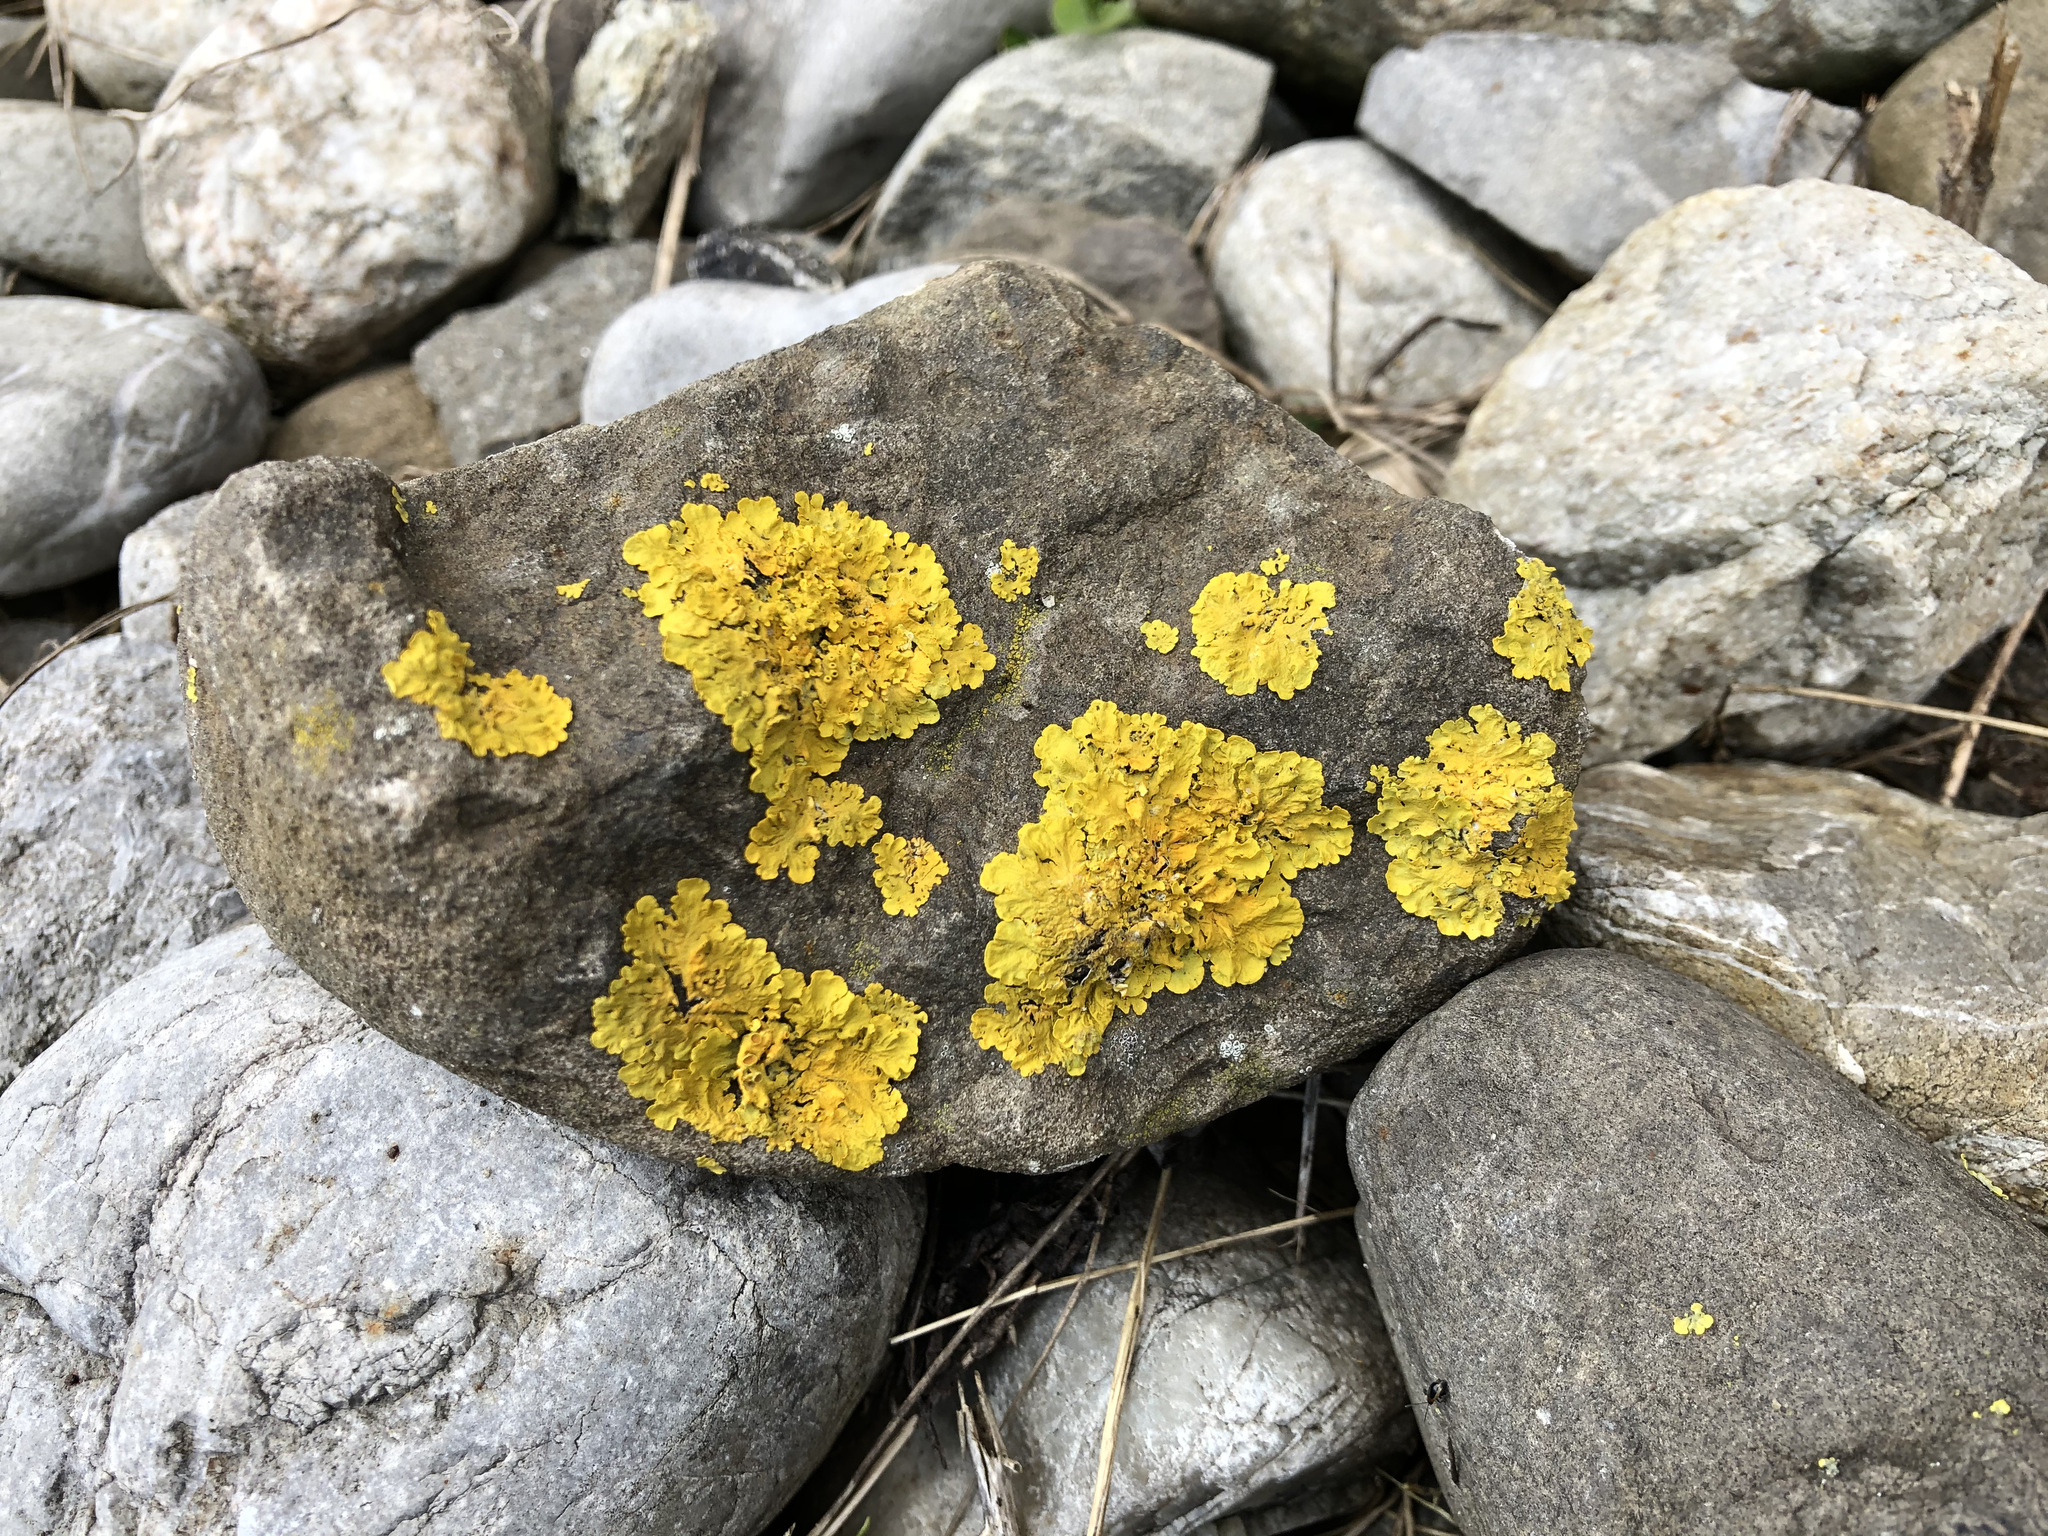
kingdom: Fungi
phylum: Ascomycota
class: Lecanoromycetes
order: Teloschistales
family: Teloschistaceae
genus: Xanthoria
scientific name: Xanthoria parietina
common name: Common orange lichen
